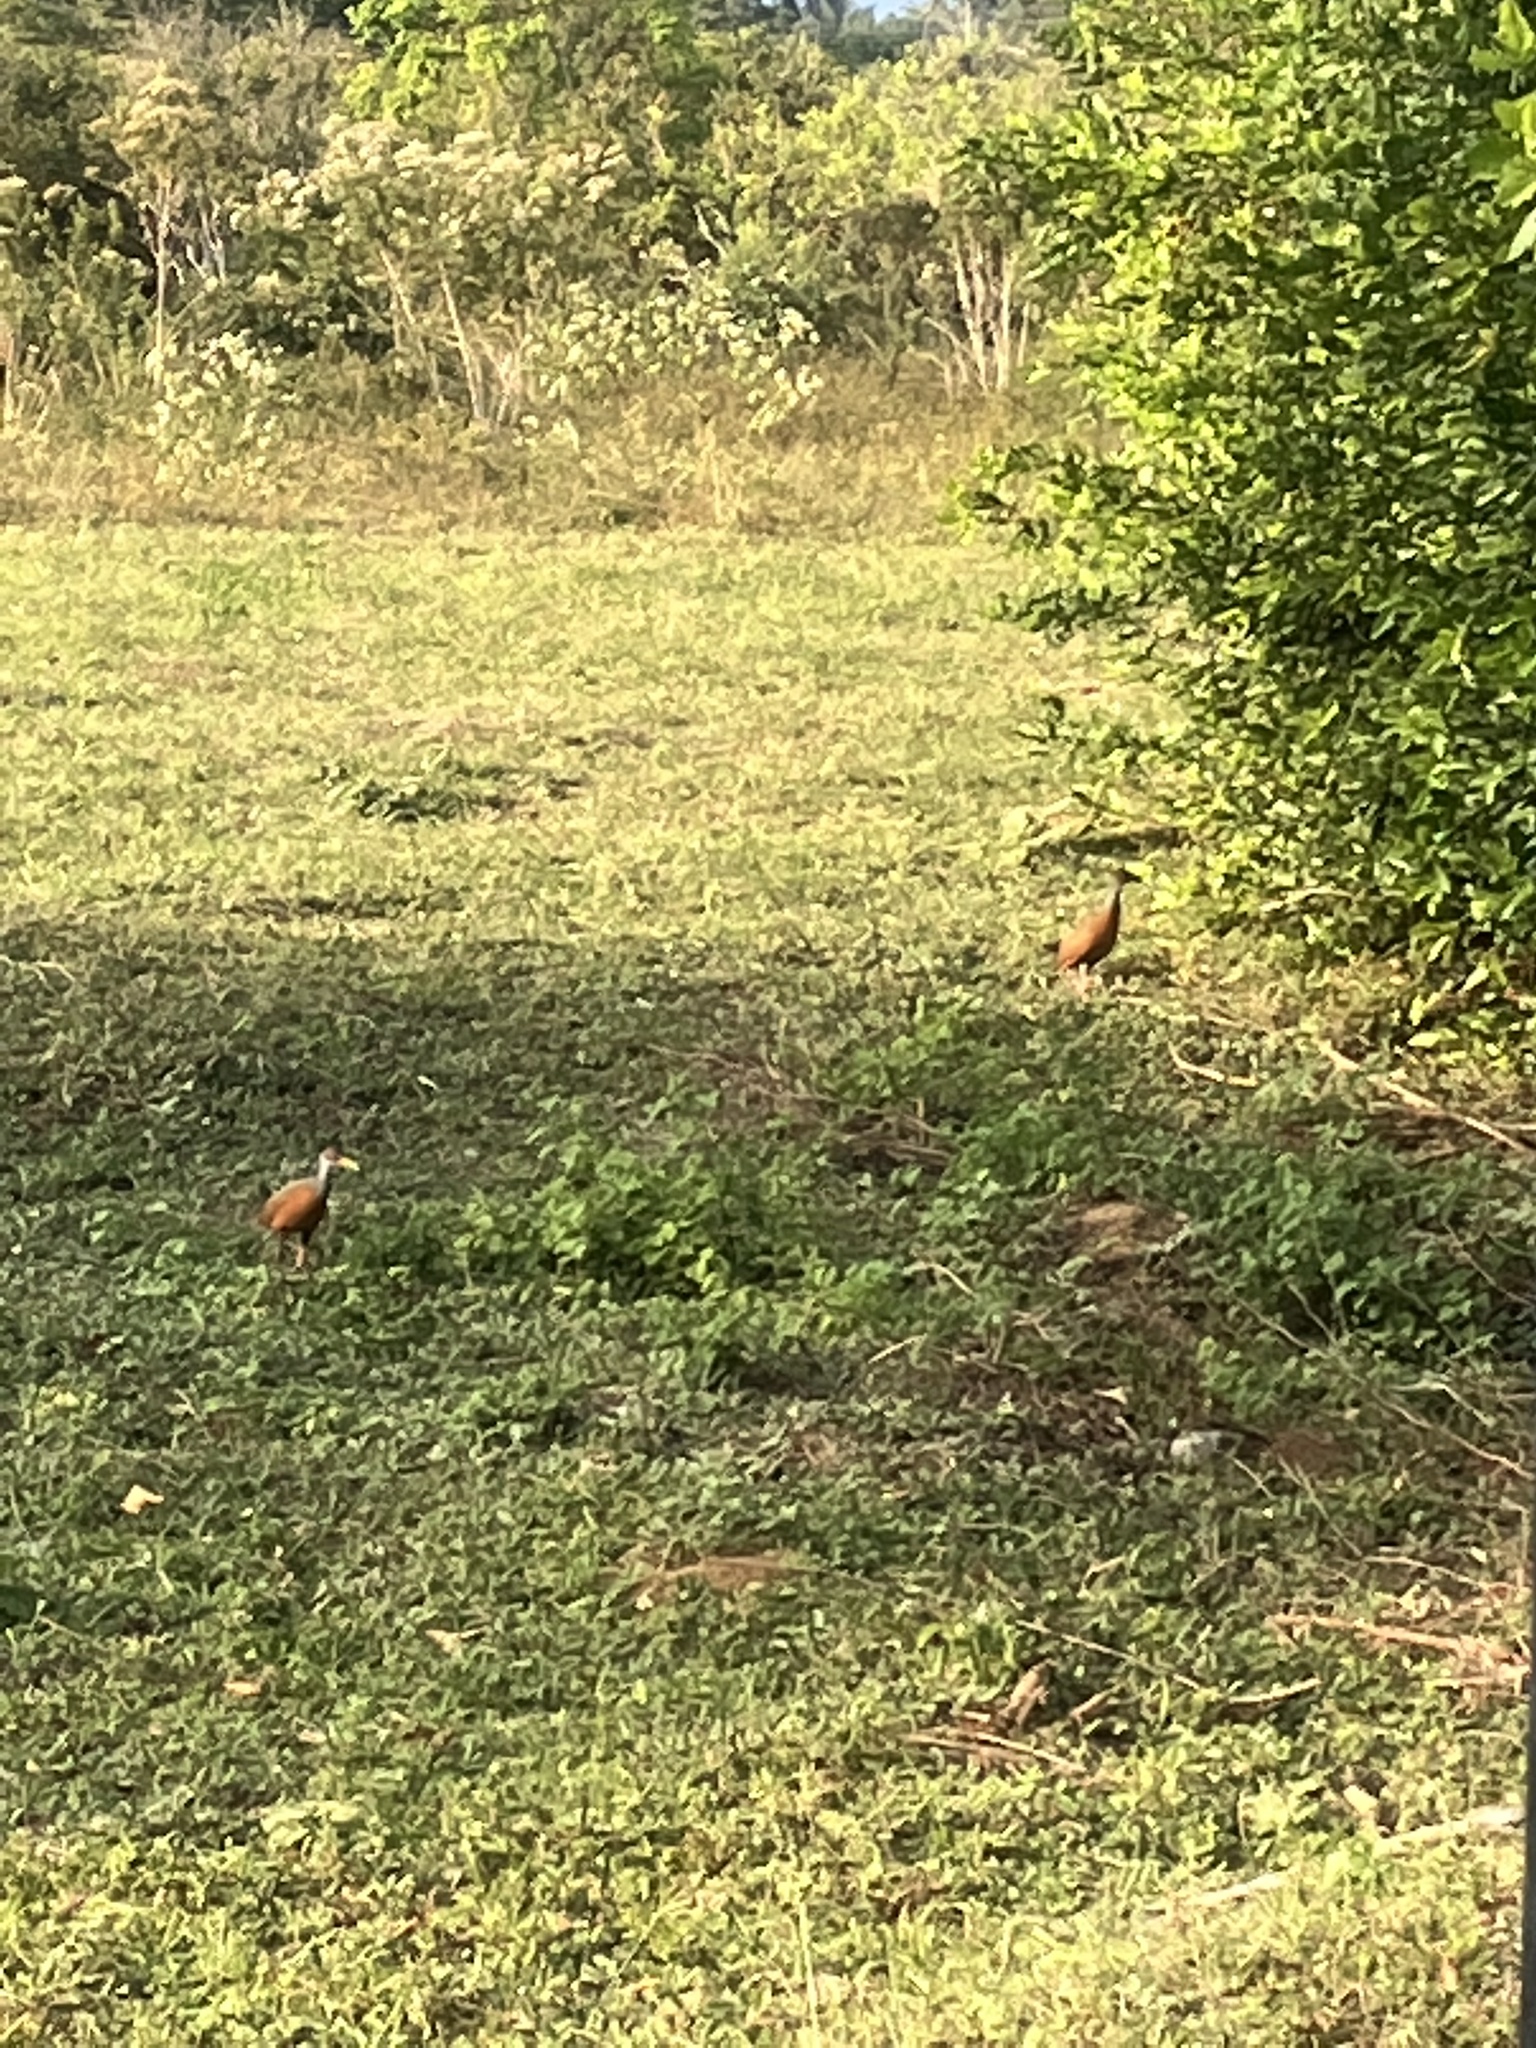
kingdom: Animalia
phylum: Chordata
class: Aves
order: Gruiformes
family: Rallidae
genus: Aramides
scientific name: Aramides cajanea
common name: Gray-necked wood-rail
